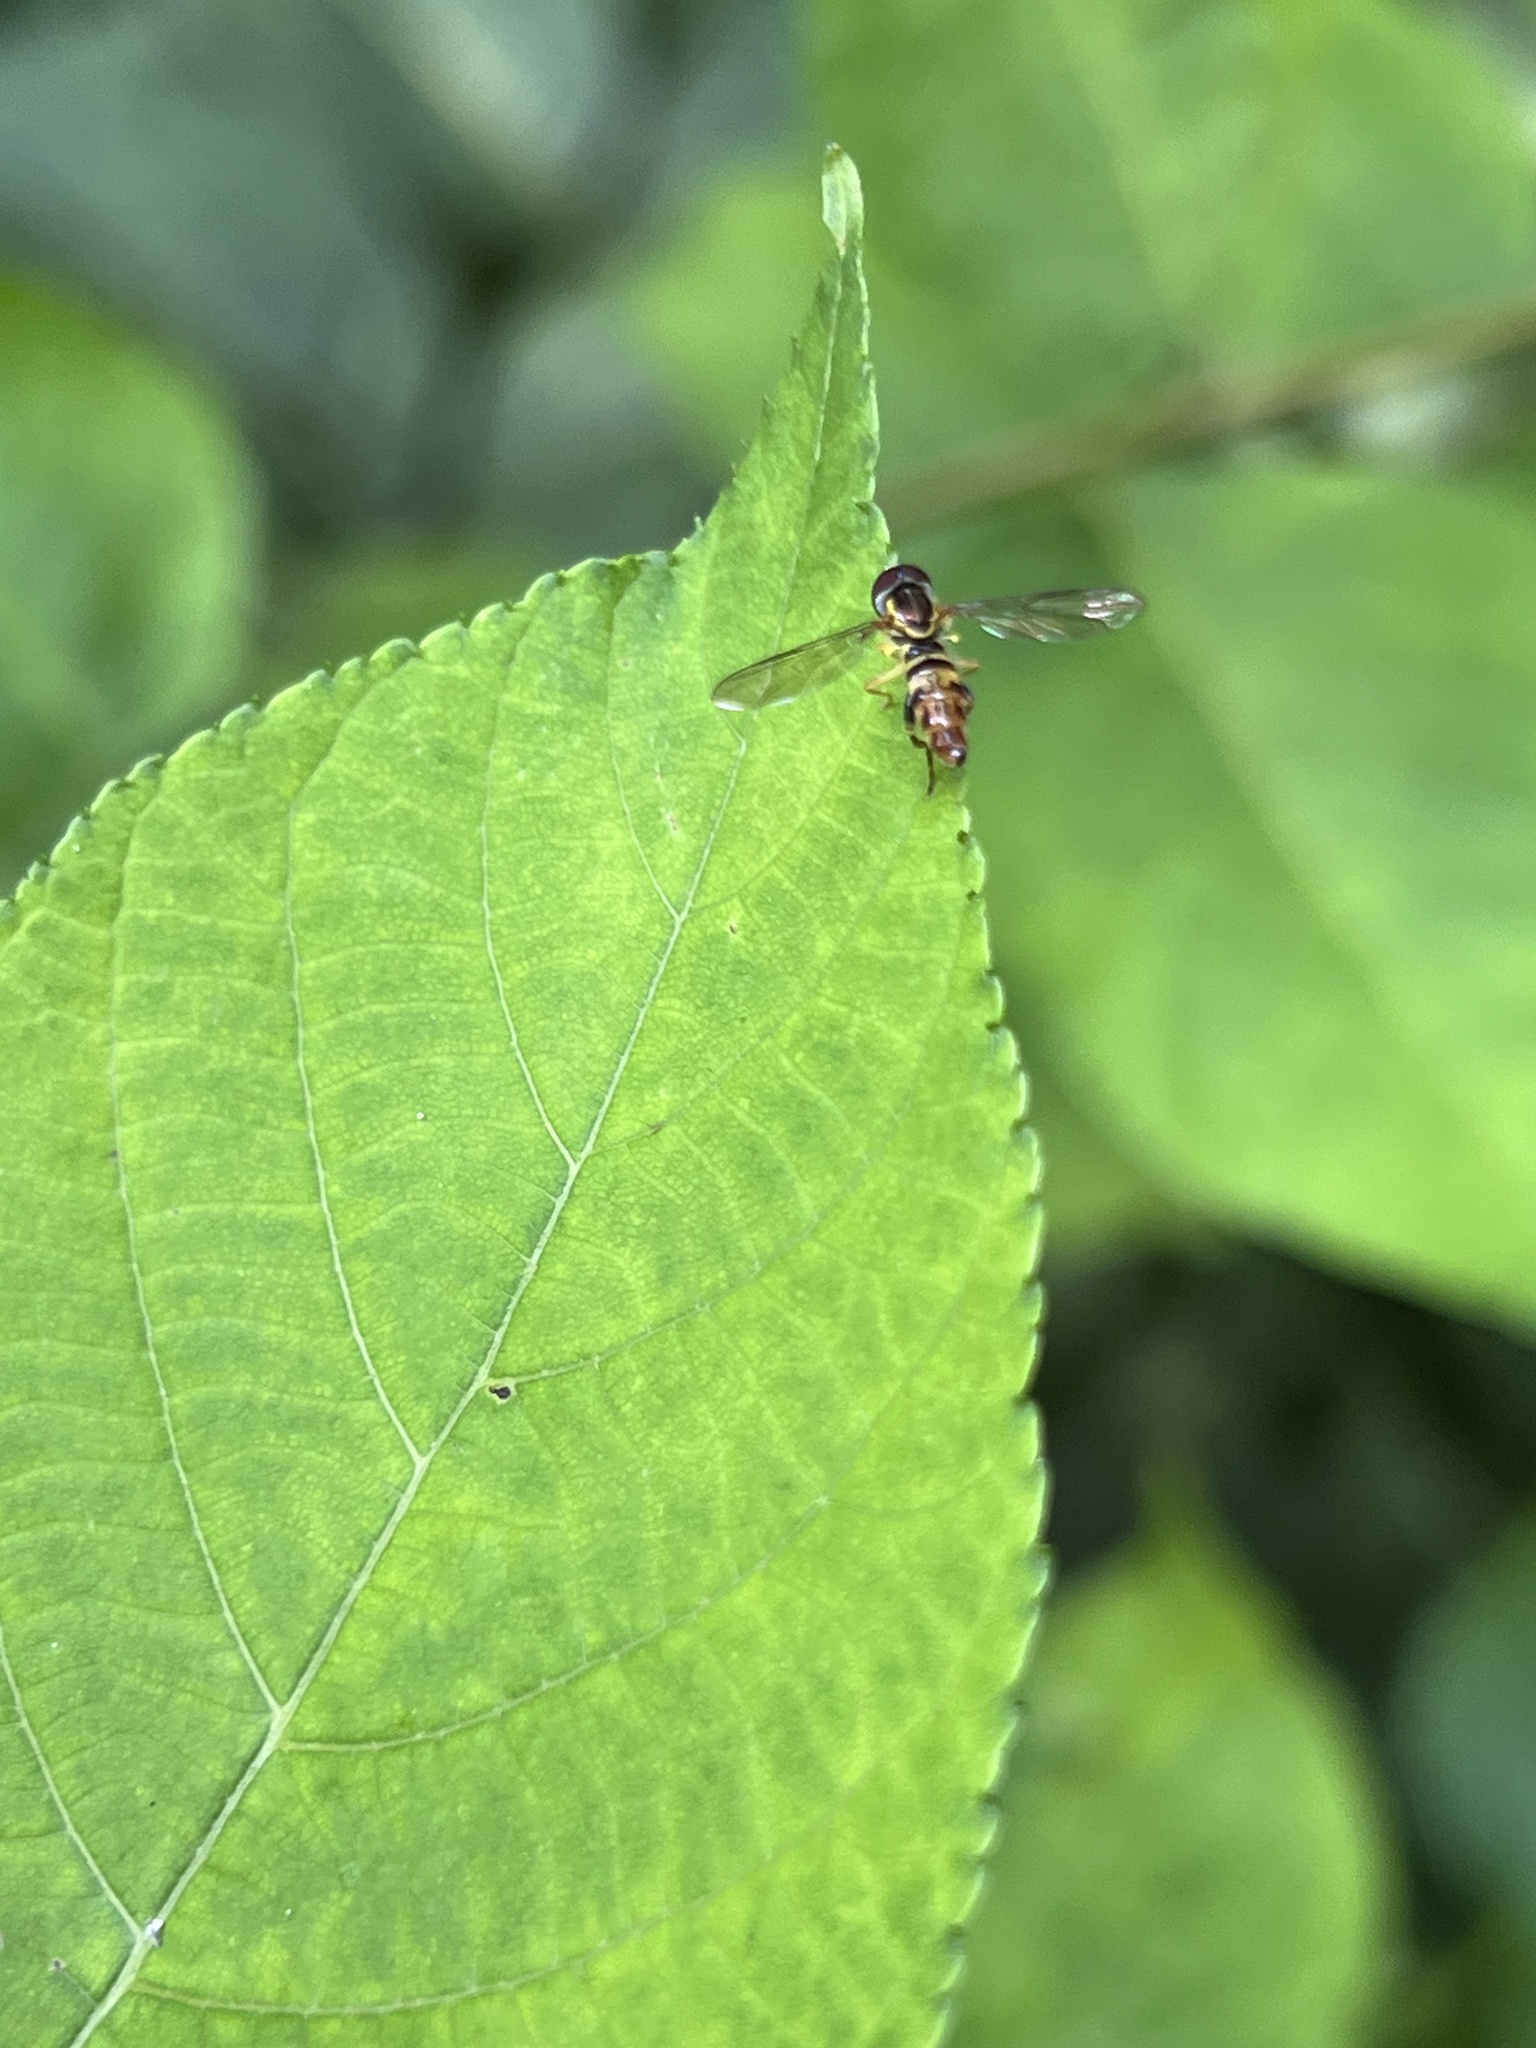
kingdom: Animalia
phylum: Arthropoda
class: Insecta
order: Diptera
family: Syrphidae
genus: Toxomerus
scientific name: Toxomerus geminatus
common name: Eastern calligrapher
